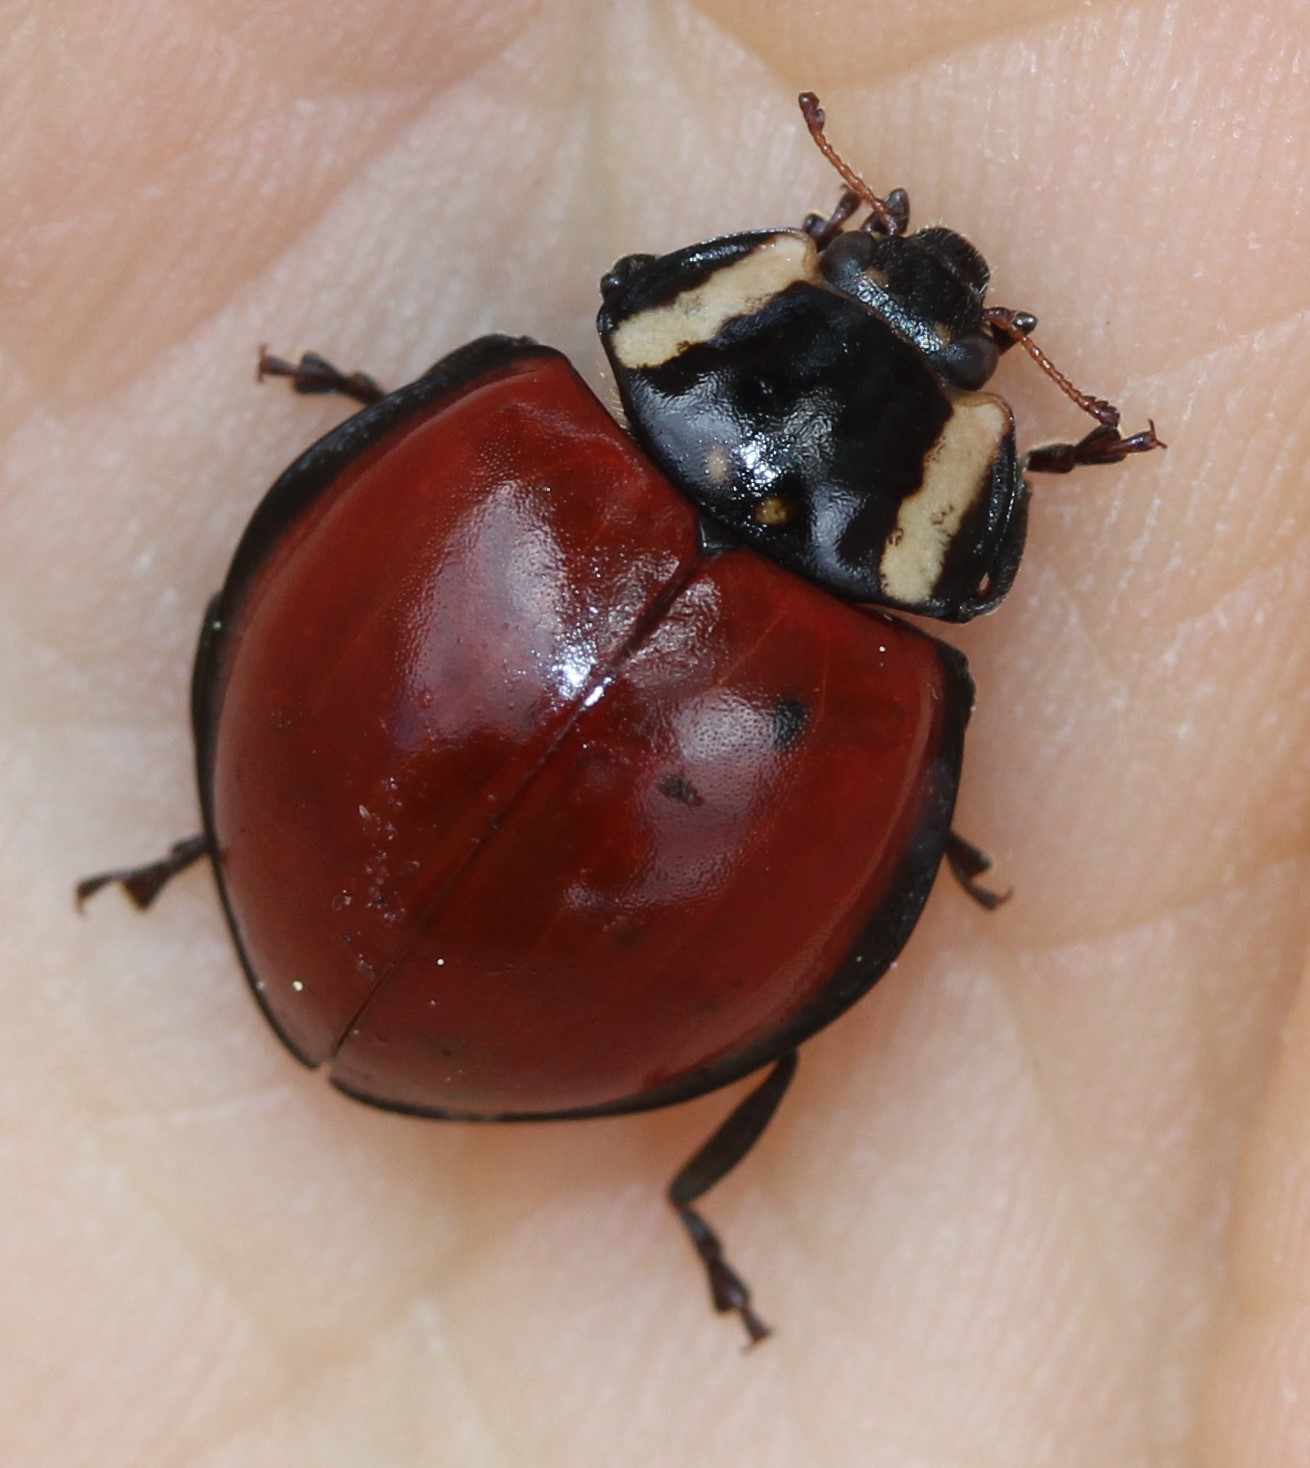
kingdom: Animalia
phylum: Arthropoda
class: Insecta
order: Coleoptera
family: Coccinellidae
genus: Anatis
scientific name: Anatis lecontei
